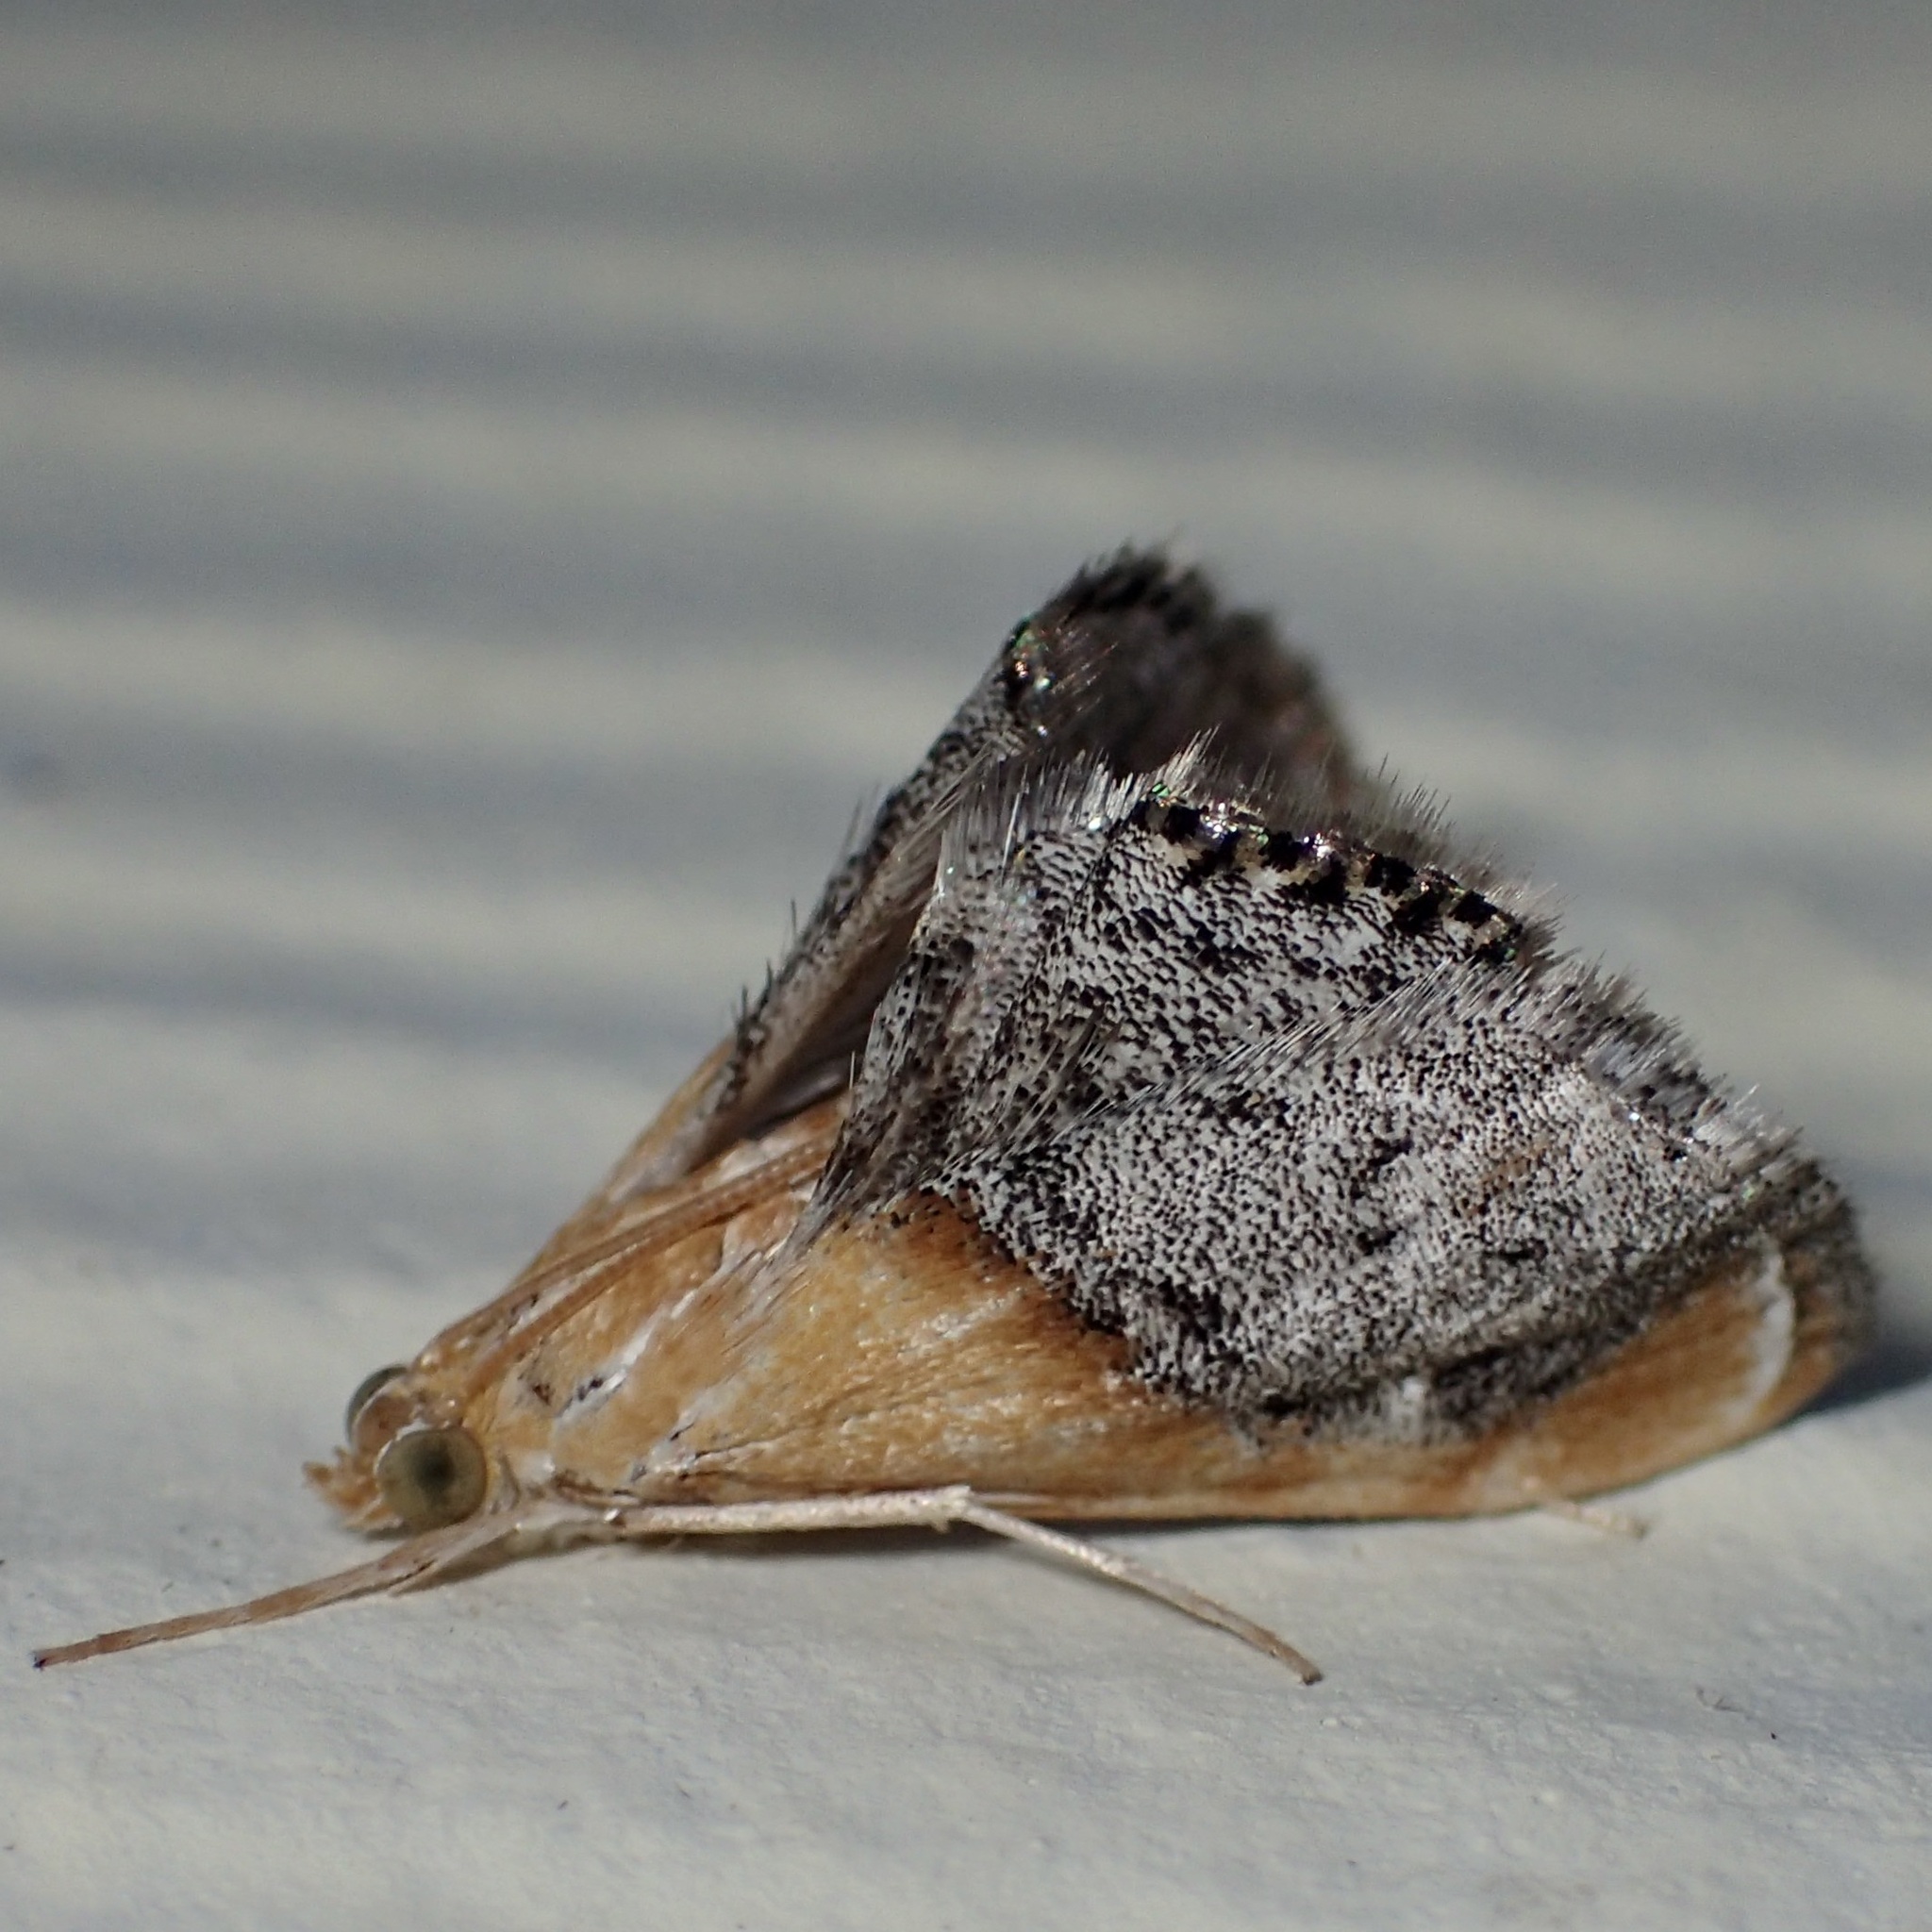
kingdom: Animalia
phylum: Arthropoda
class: Insecta
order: Lepidoptera
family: Crambidae
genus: Chalcoela
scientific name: Chalcoela iphitalis
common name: Sooty-winged chalcoela moth
